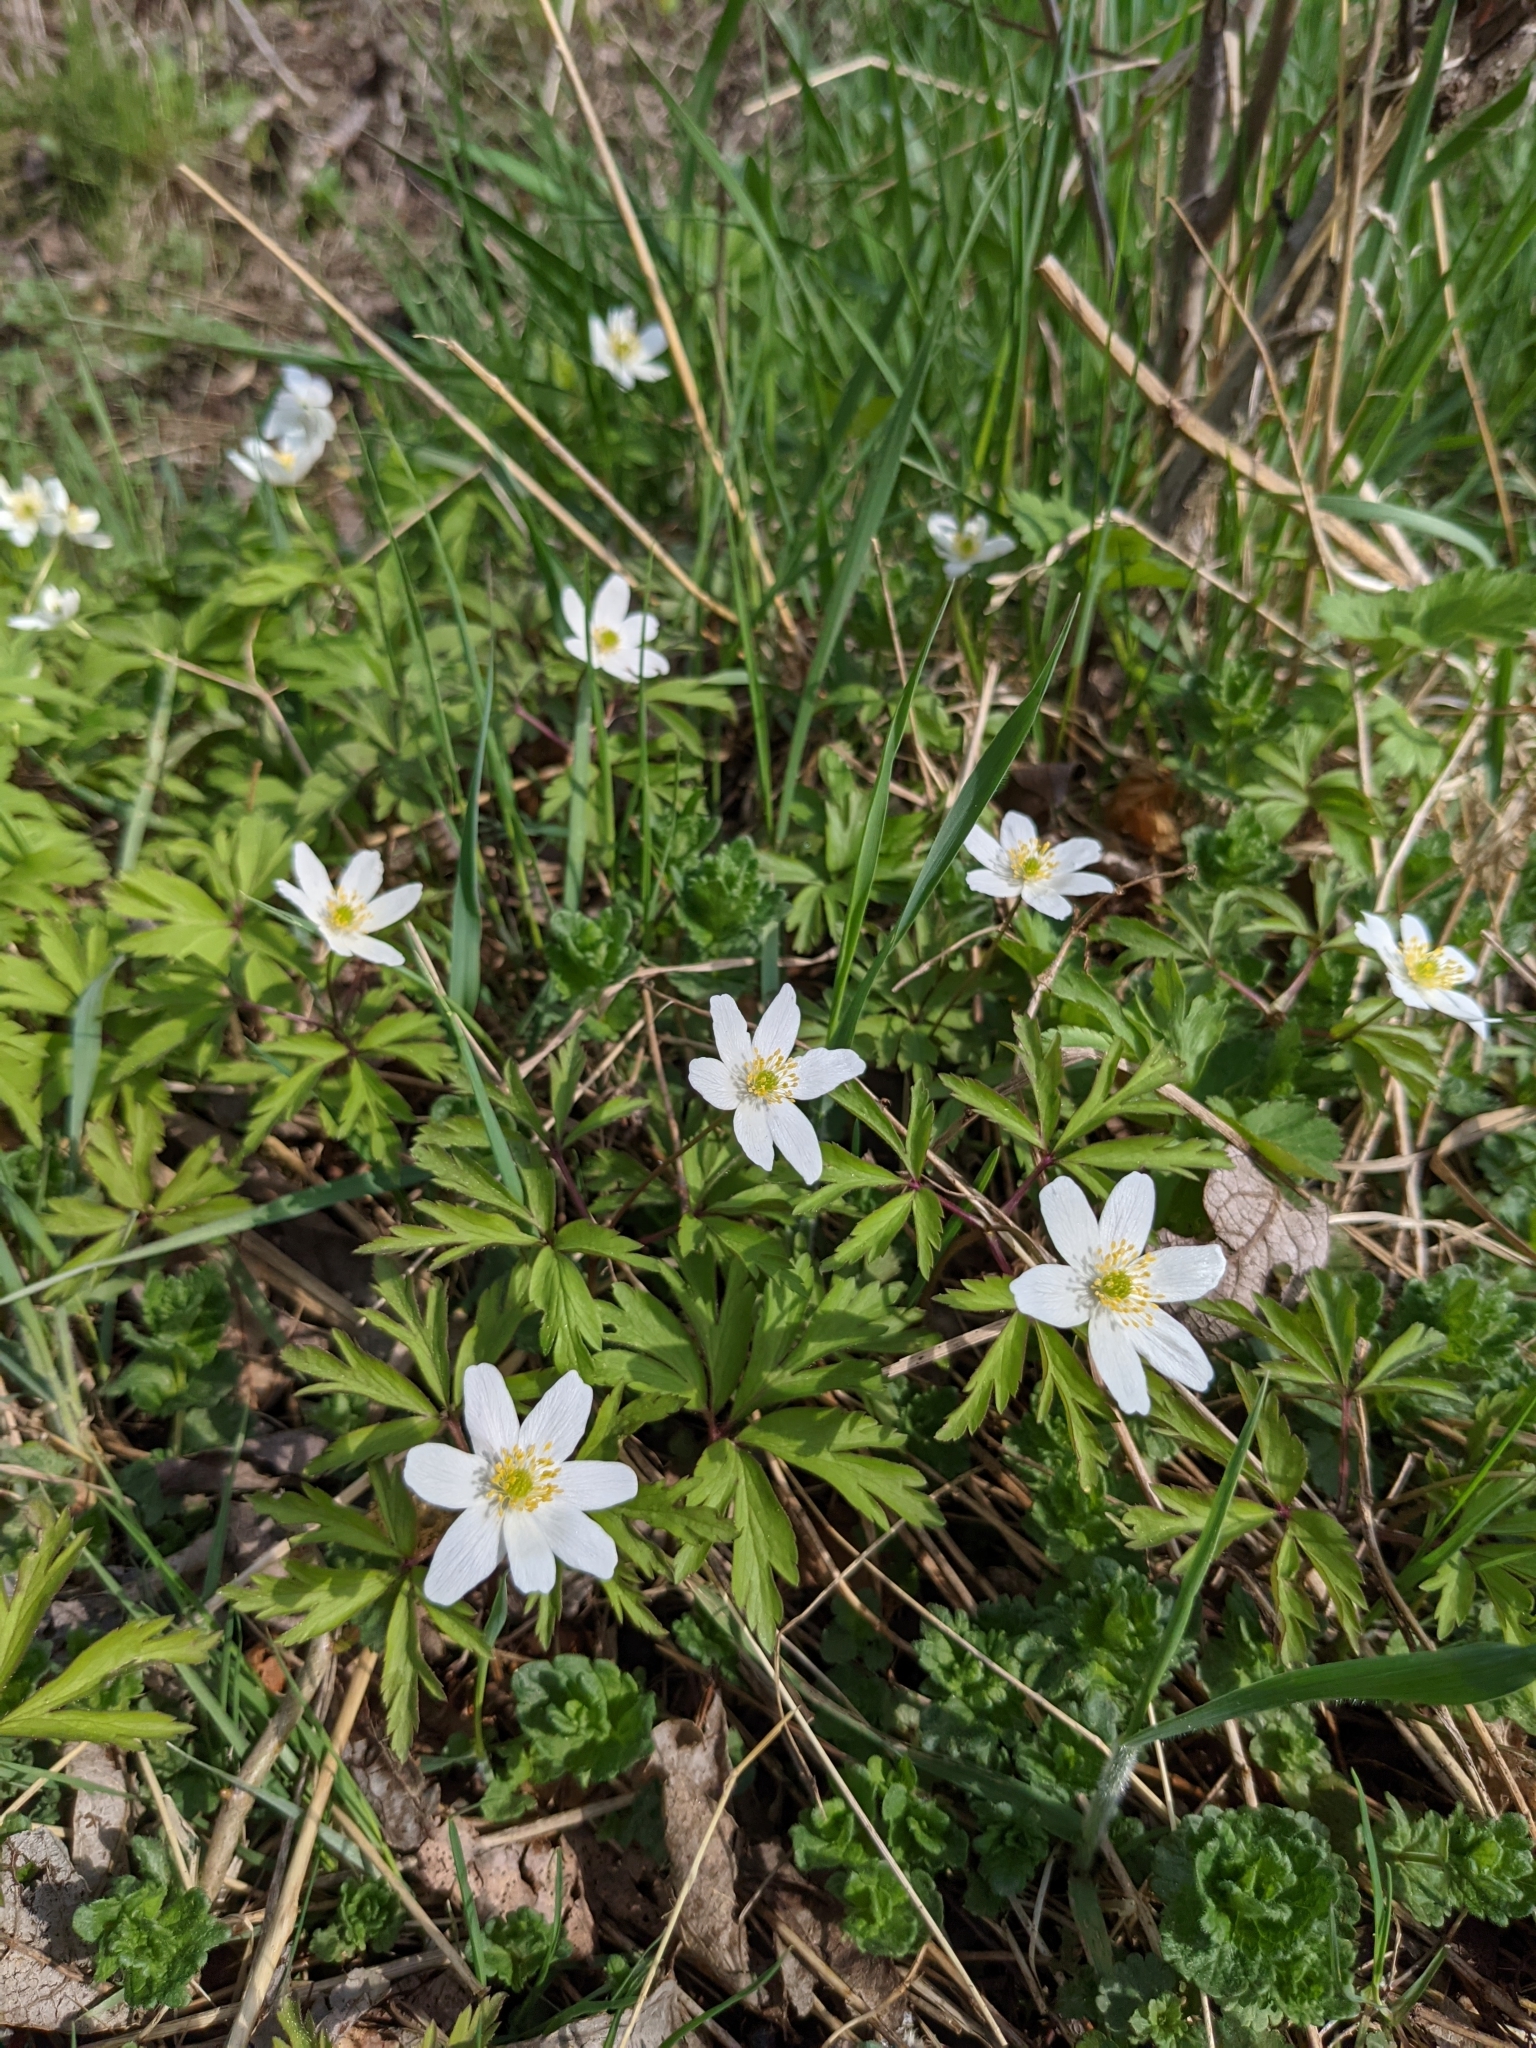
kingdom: Plantae
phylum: Tracheophyta
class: Magnoliopsida
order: Ranunculales
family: Ranunculaceae
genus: Anemone
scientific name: Anemone nemorosa
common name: Wood anemone
